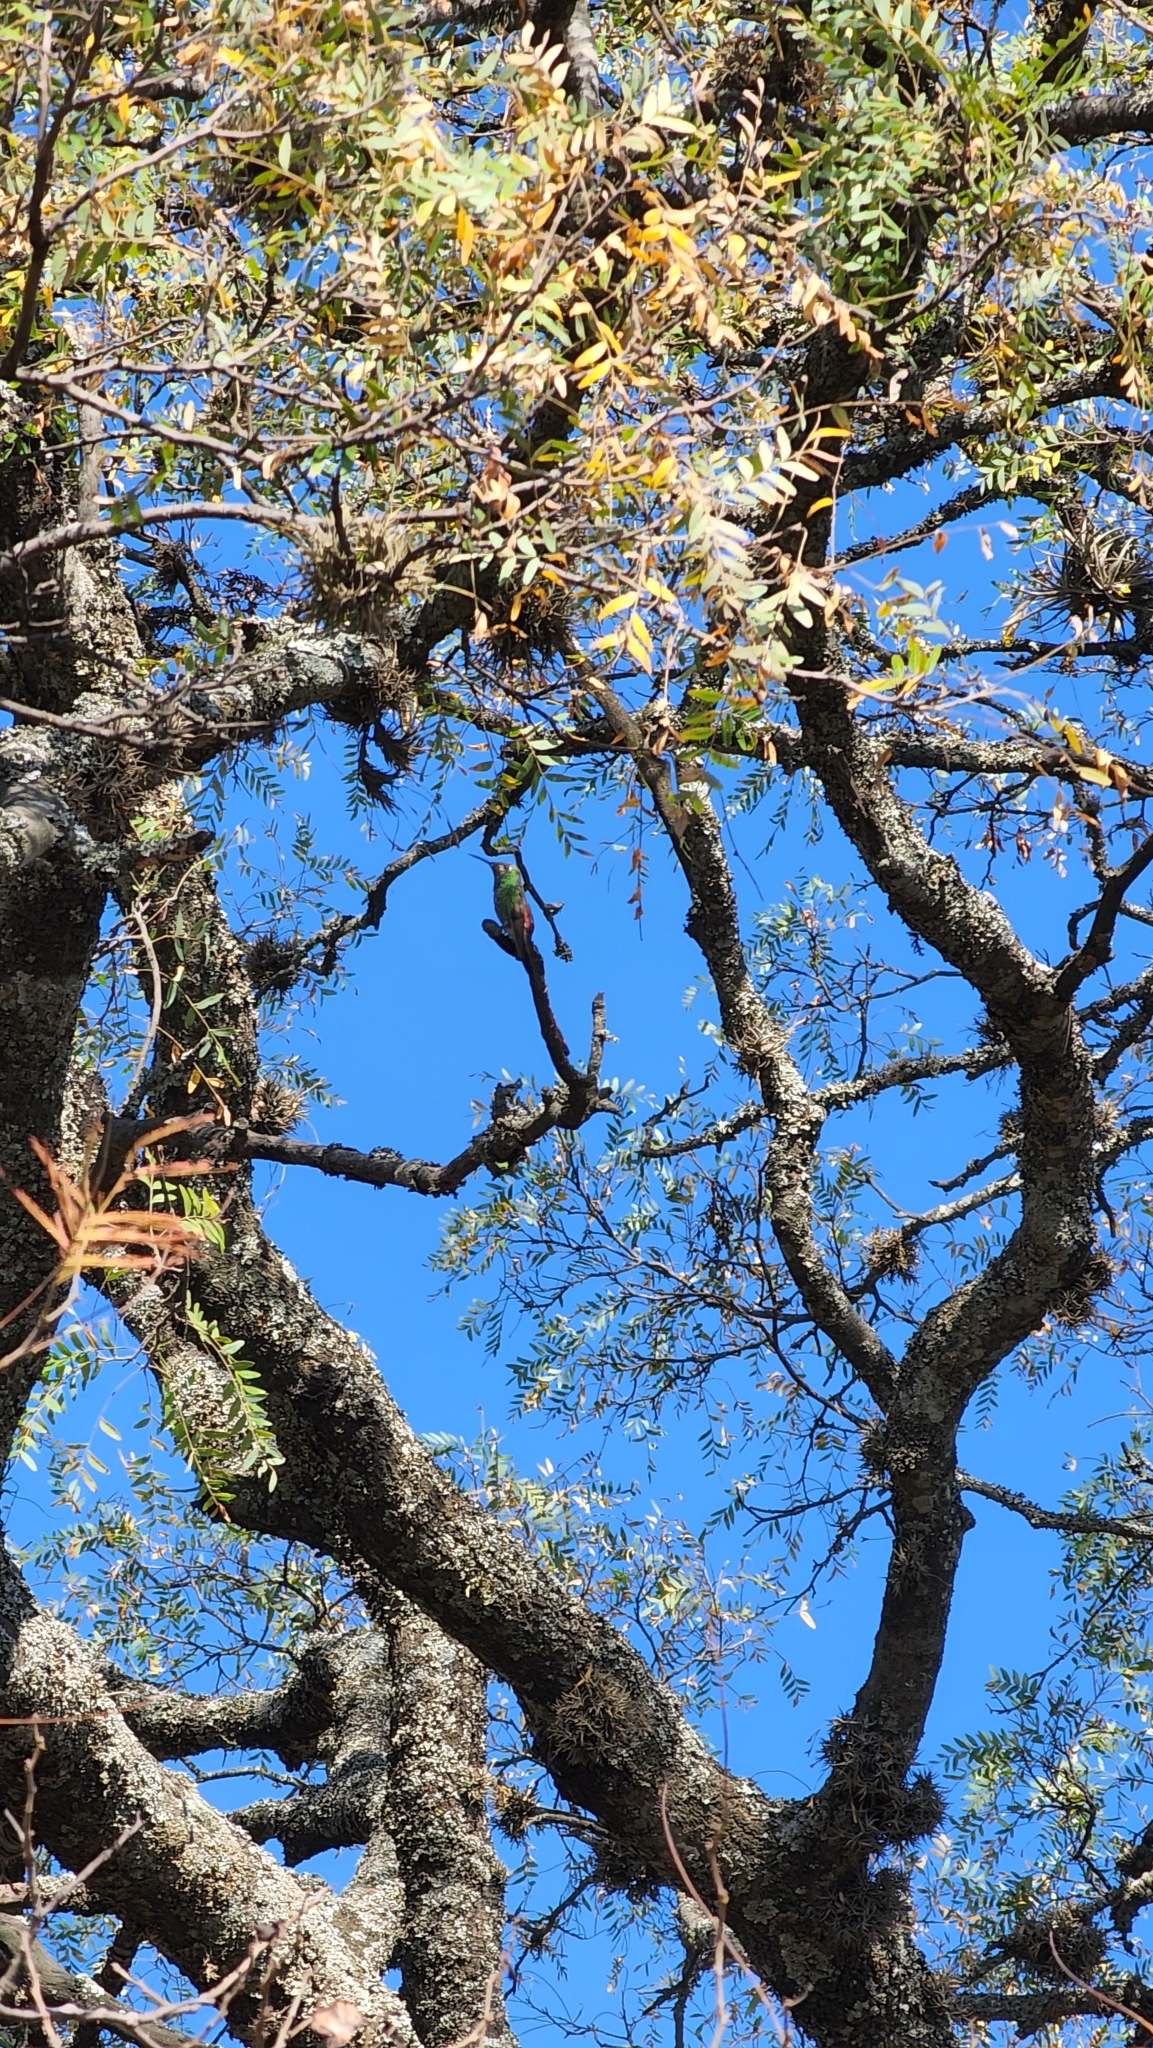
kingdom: Animalia
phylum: Chordata
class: Aves
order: Apodiformes
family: Trochilidae
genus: Sappho
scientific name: Sappho sparganurus
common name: Red-tailed comet
